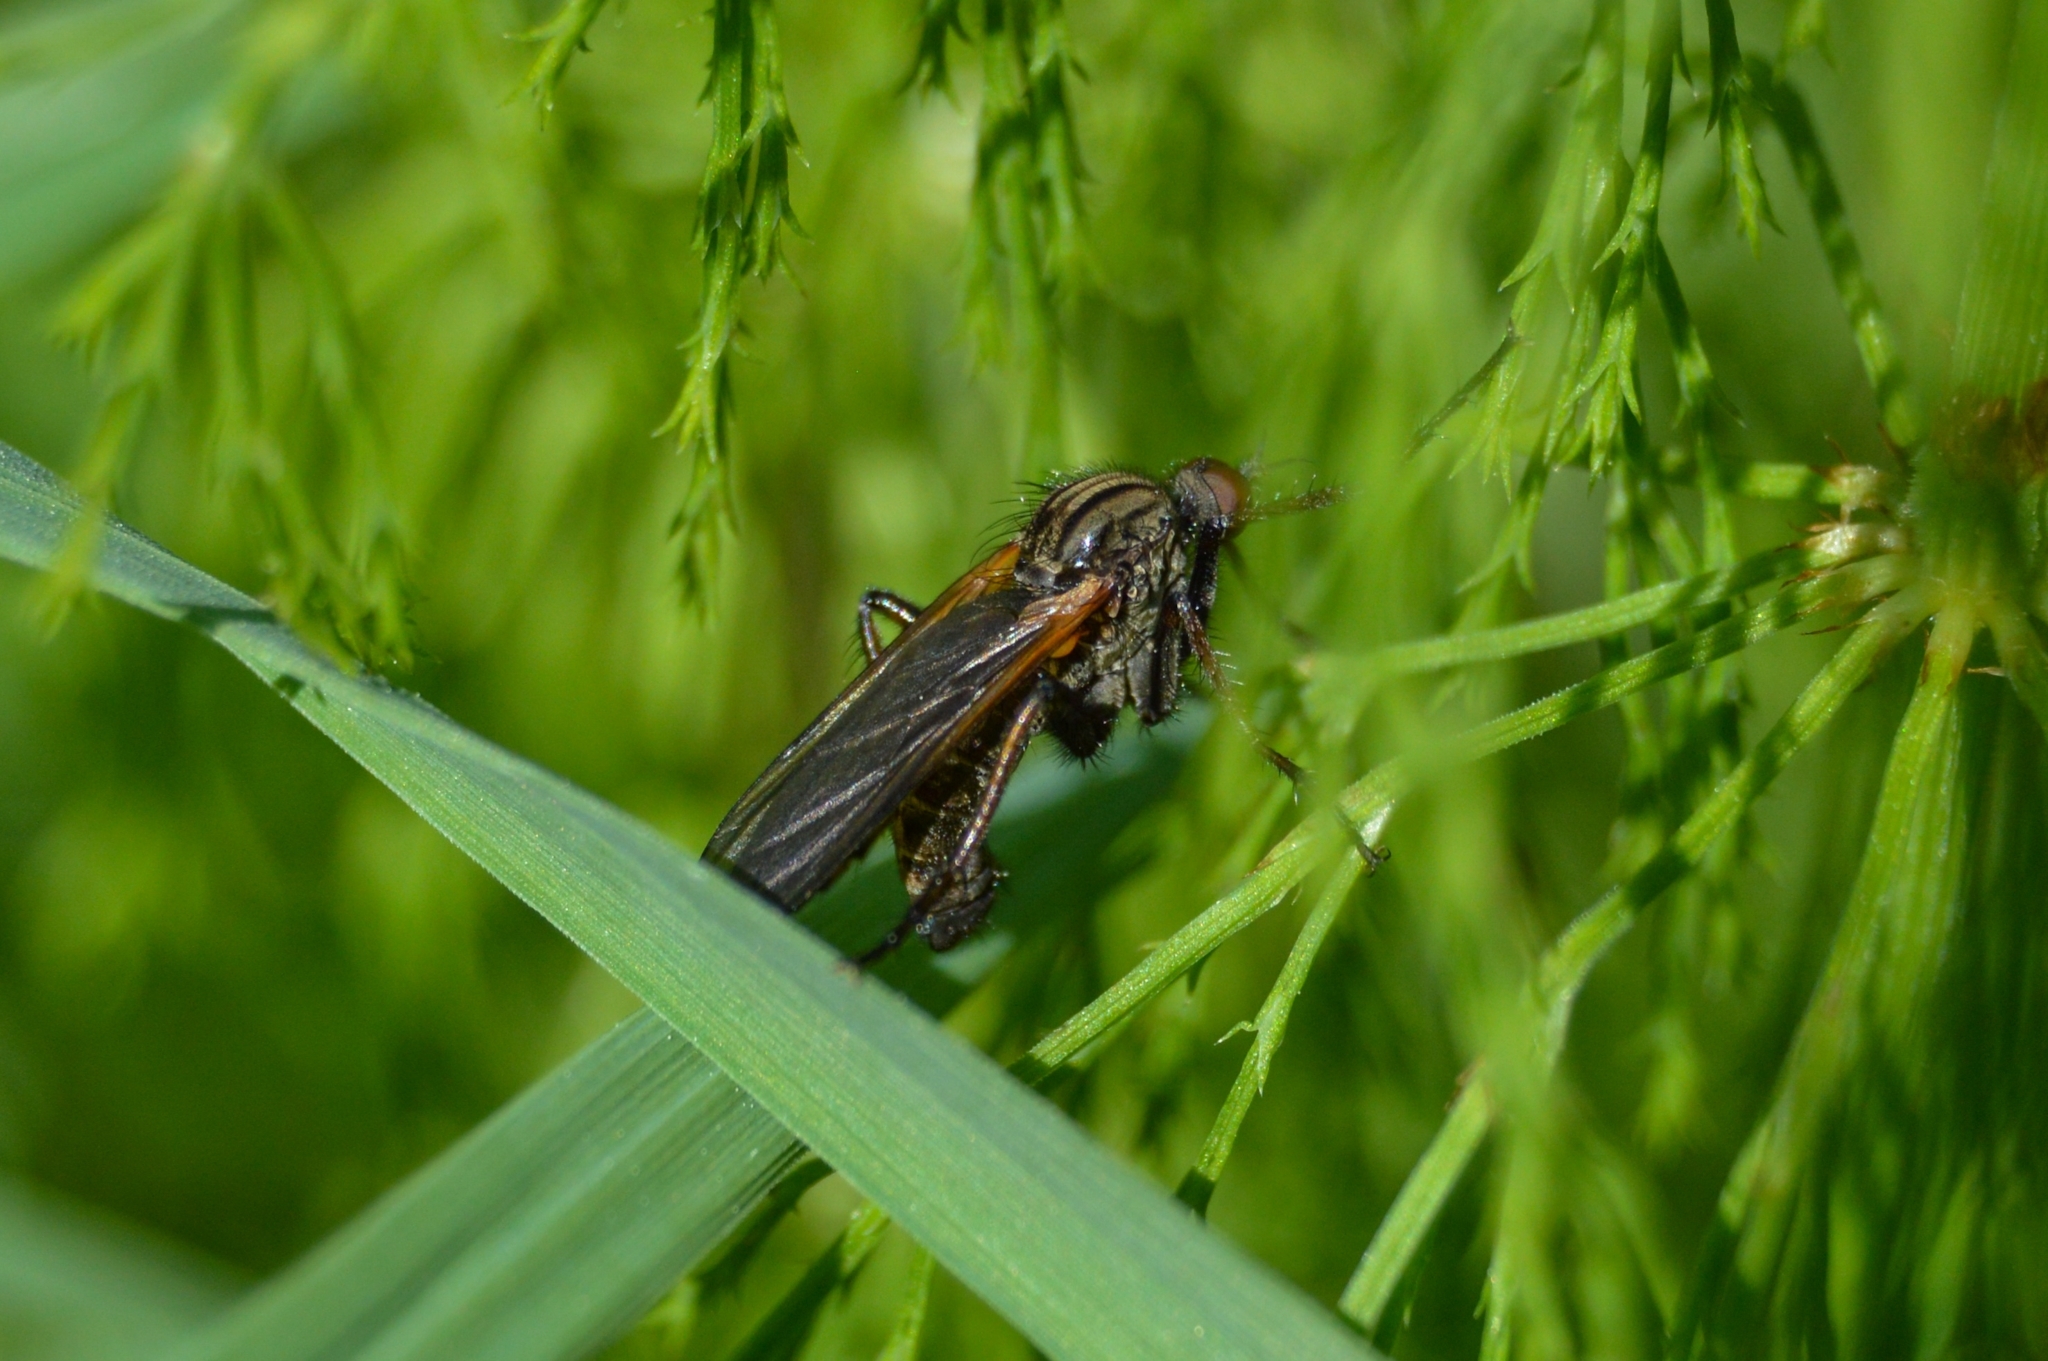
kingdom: Animalia
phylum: Arthropoda
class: Insecta
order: Diptera
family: Empididae
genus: Empis
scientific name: Empis tessellata
